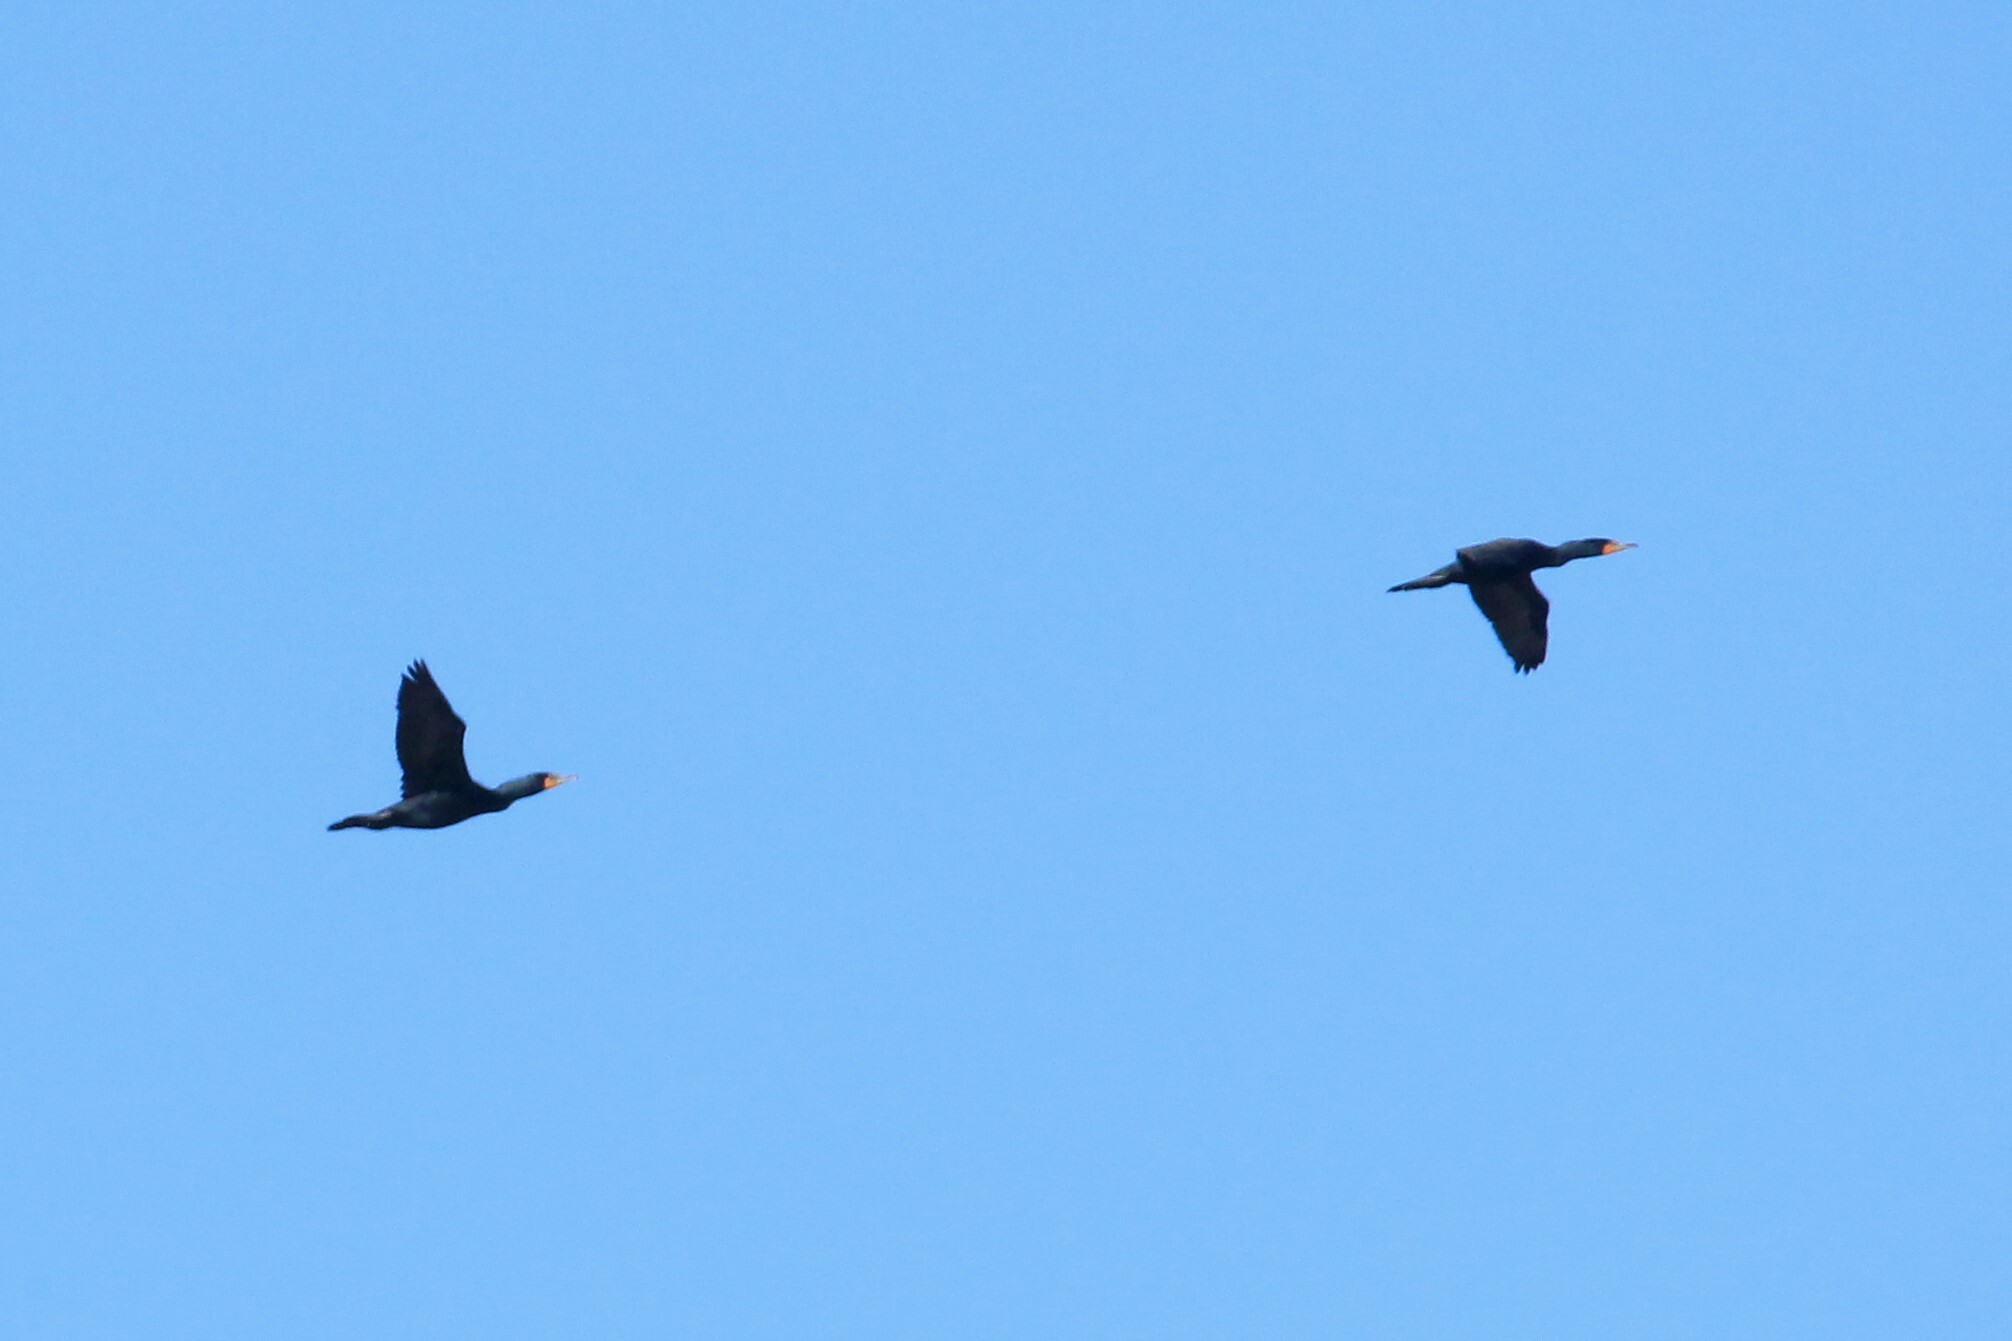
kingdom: Animalia
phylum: Chordata
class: Aves
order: Suliformes
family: Phalacrocoracidae
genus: Phalacrocorax
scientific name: Phalacrocorax auritus
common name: Double-crested cormorant
